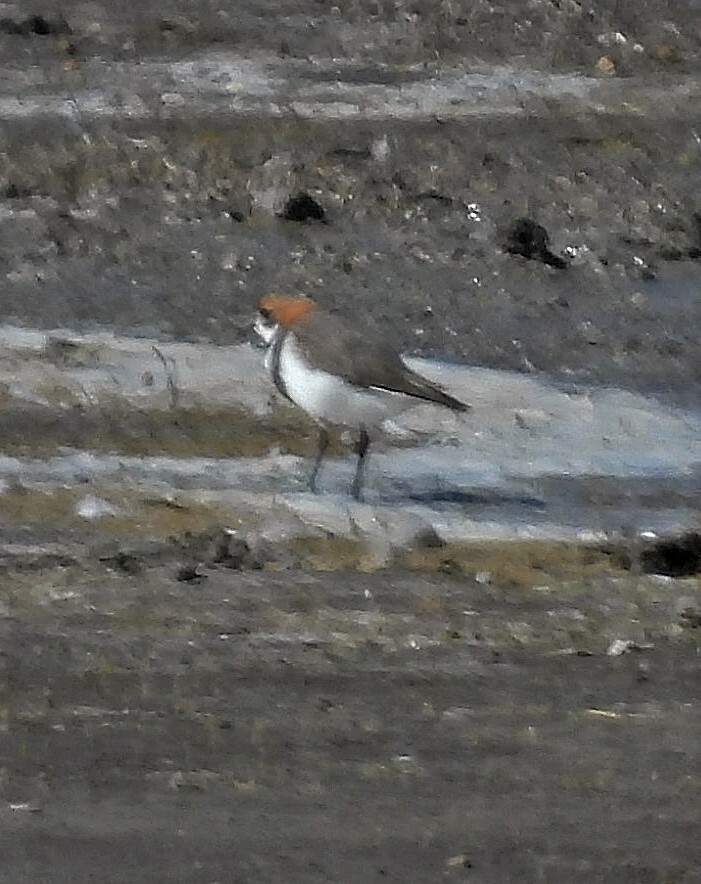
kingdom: Animalia
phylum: Chordata
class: Aves
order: Charadriiformes
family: Charadriidae
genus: Anarhynchus
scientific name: Anarhynchus
